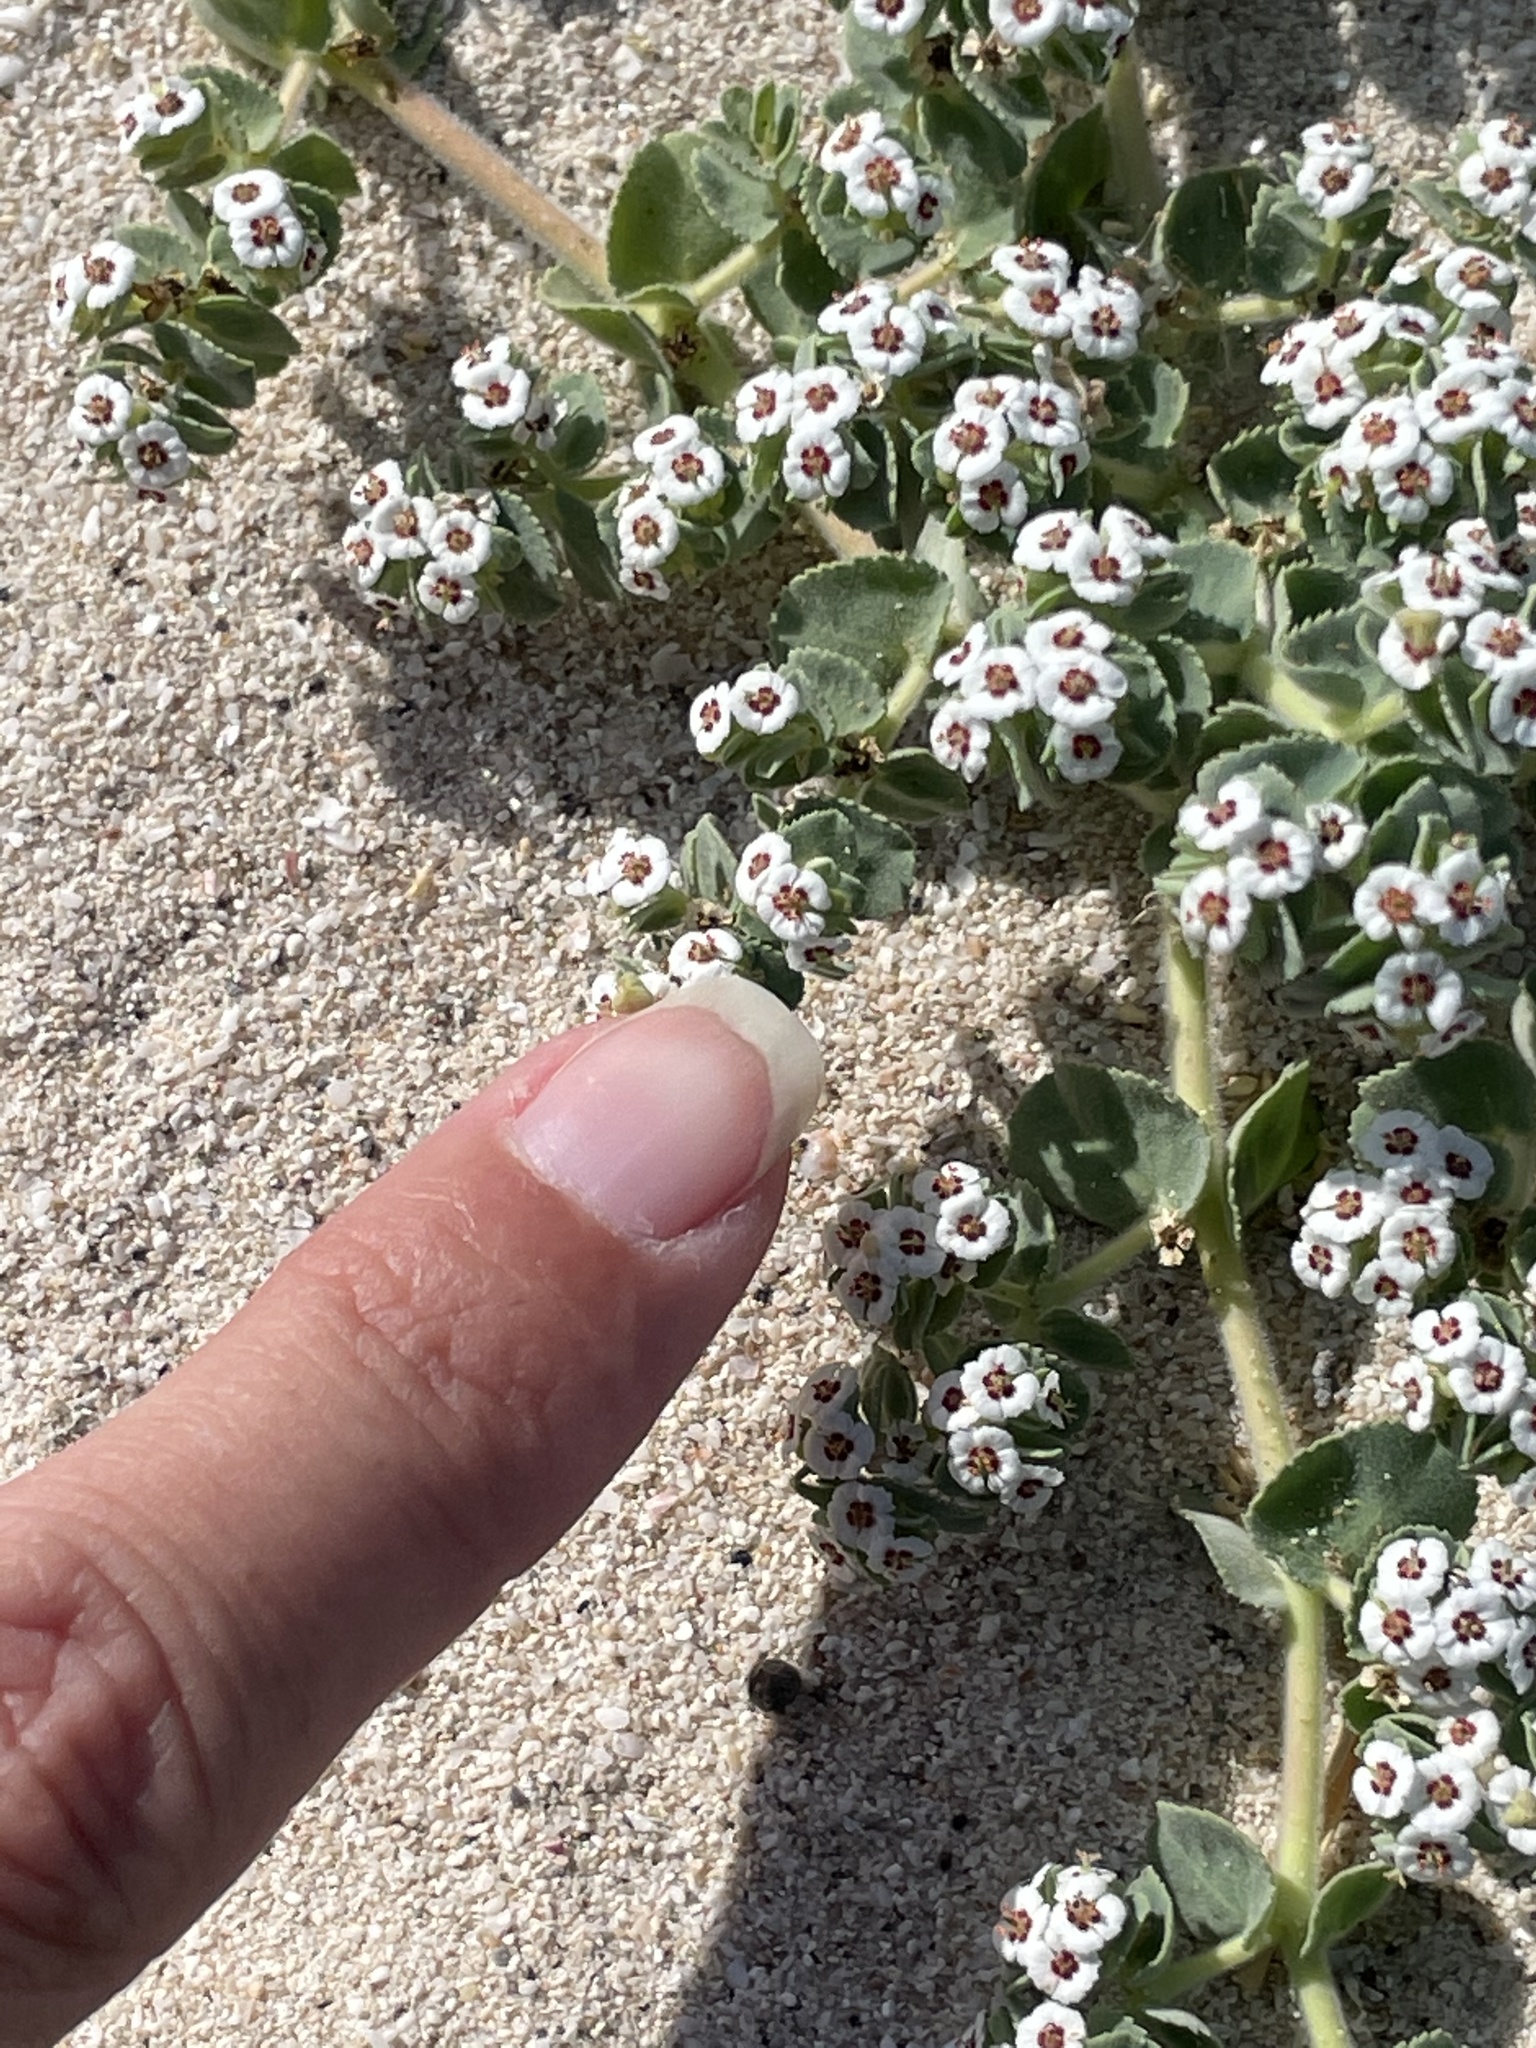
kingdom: Plantae
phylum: Tracheophyta
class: Magnoliopsida
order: Malpighiales
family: Euphorbiaceae
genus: Euphorbia
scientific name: Euphorbia leucophylla
